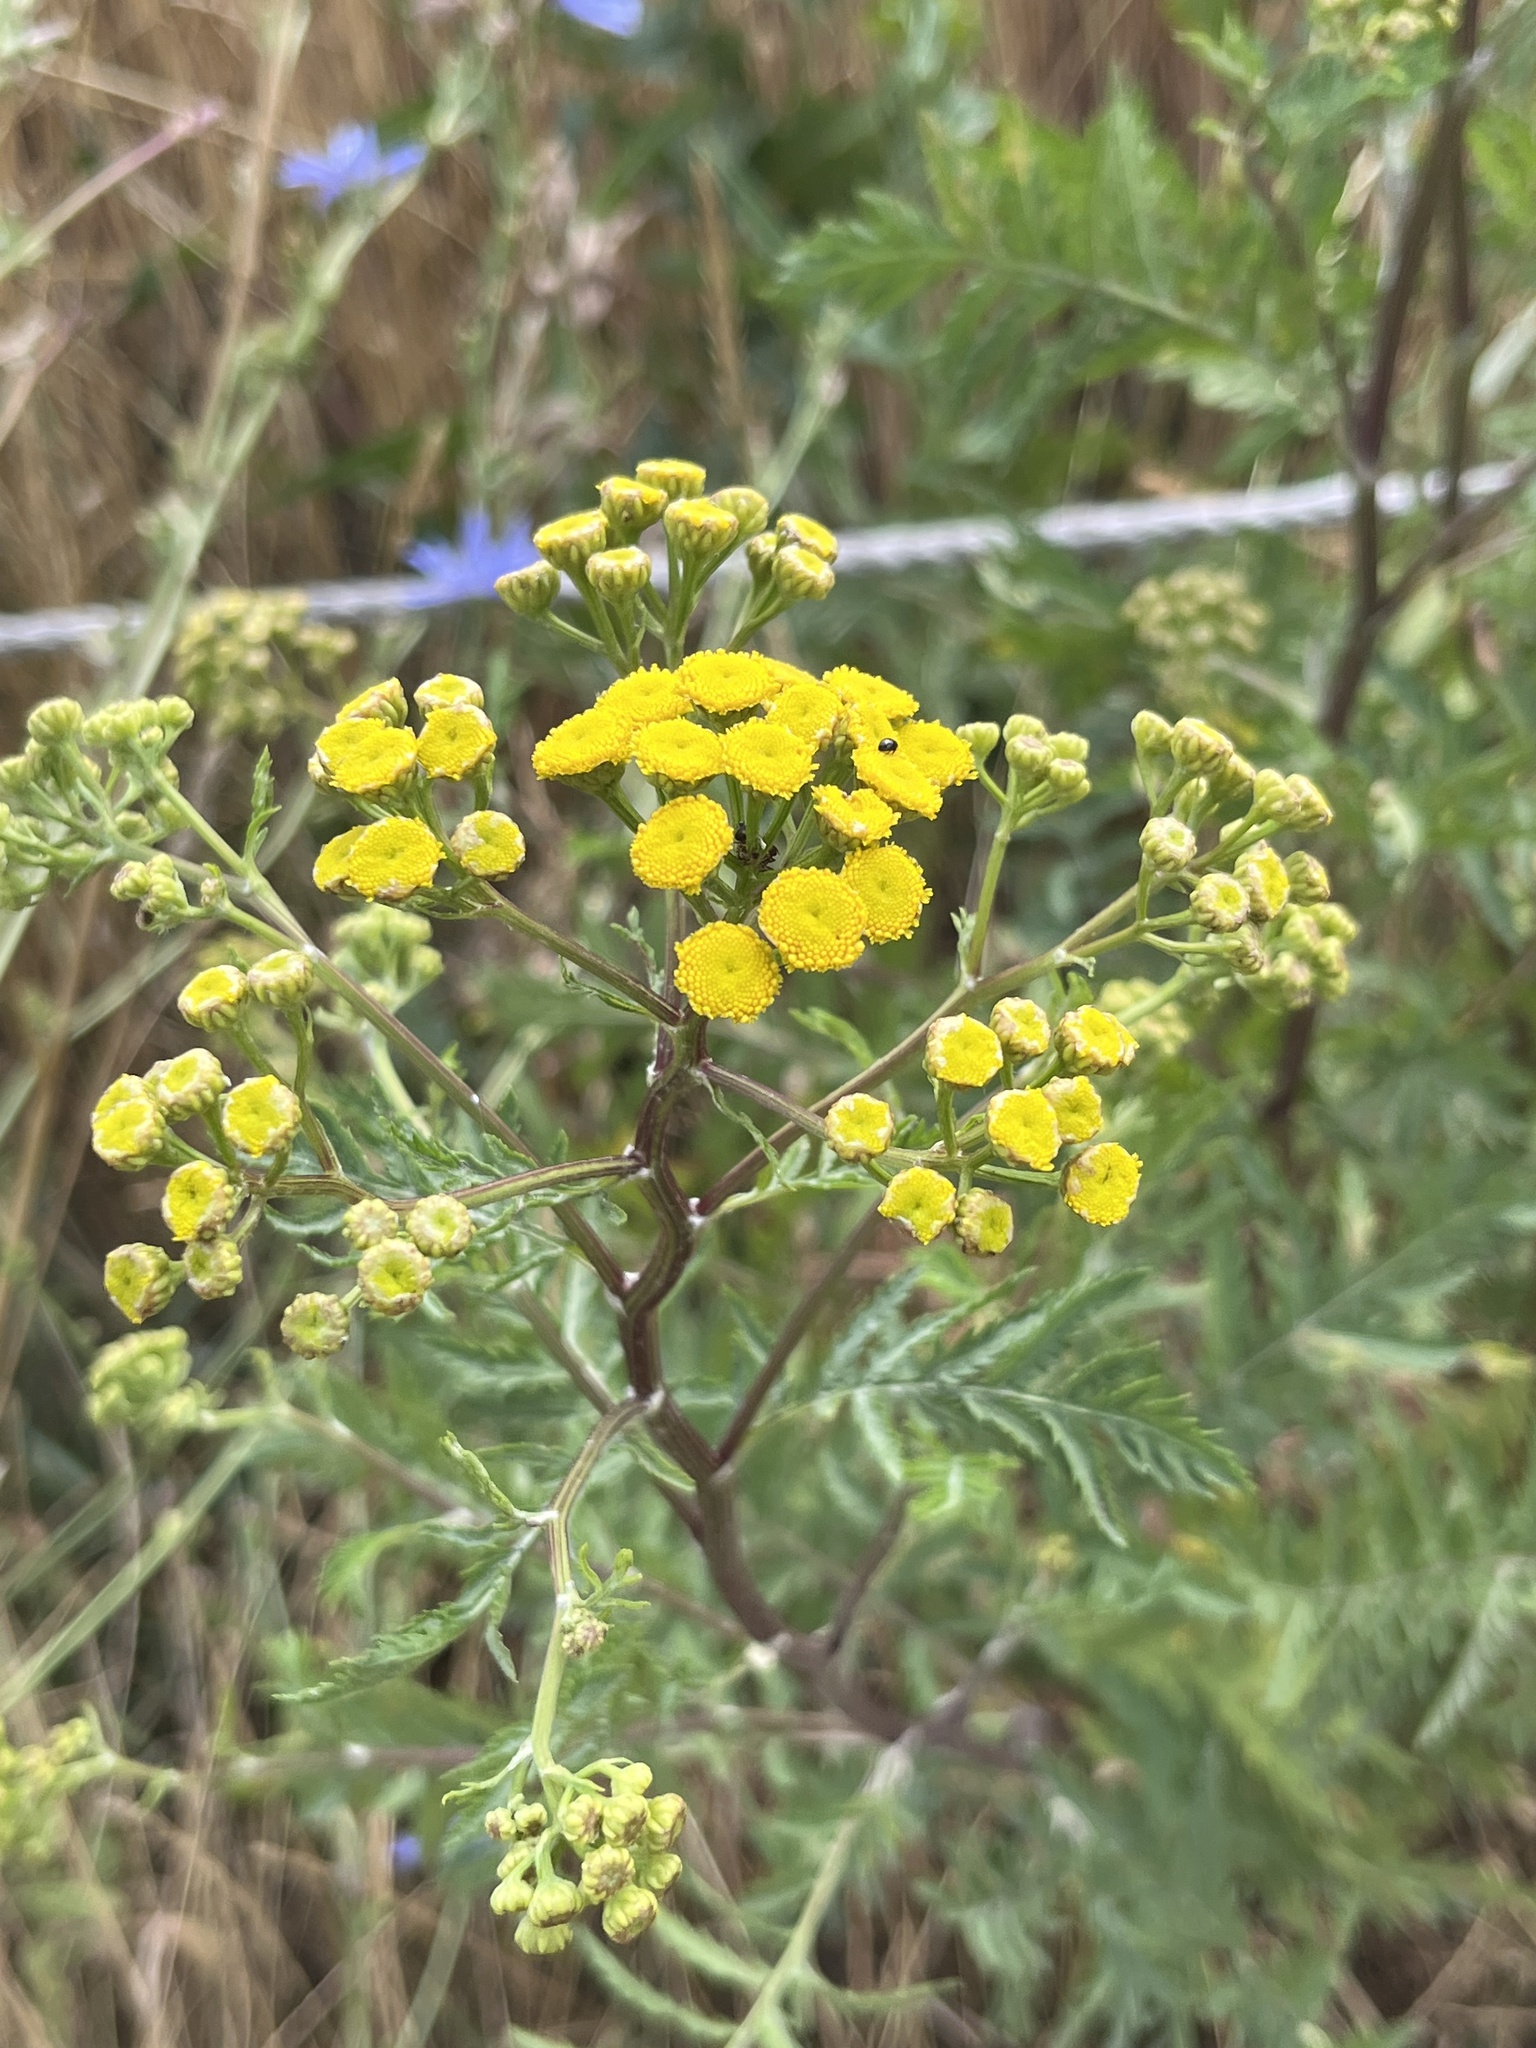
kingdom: Plantae
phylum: Tracheophyta
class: Magnoliopsida
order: Asterales
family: Asteraceae
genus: Tanacetum
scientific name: Tanacetum vulgare
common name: Common tansy
